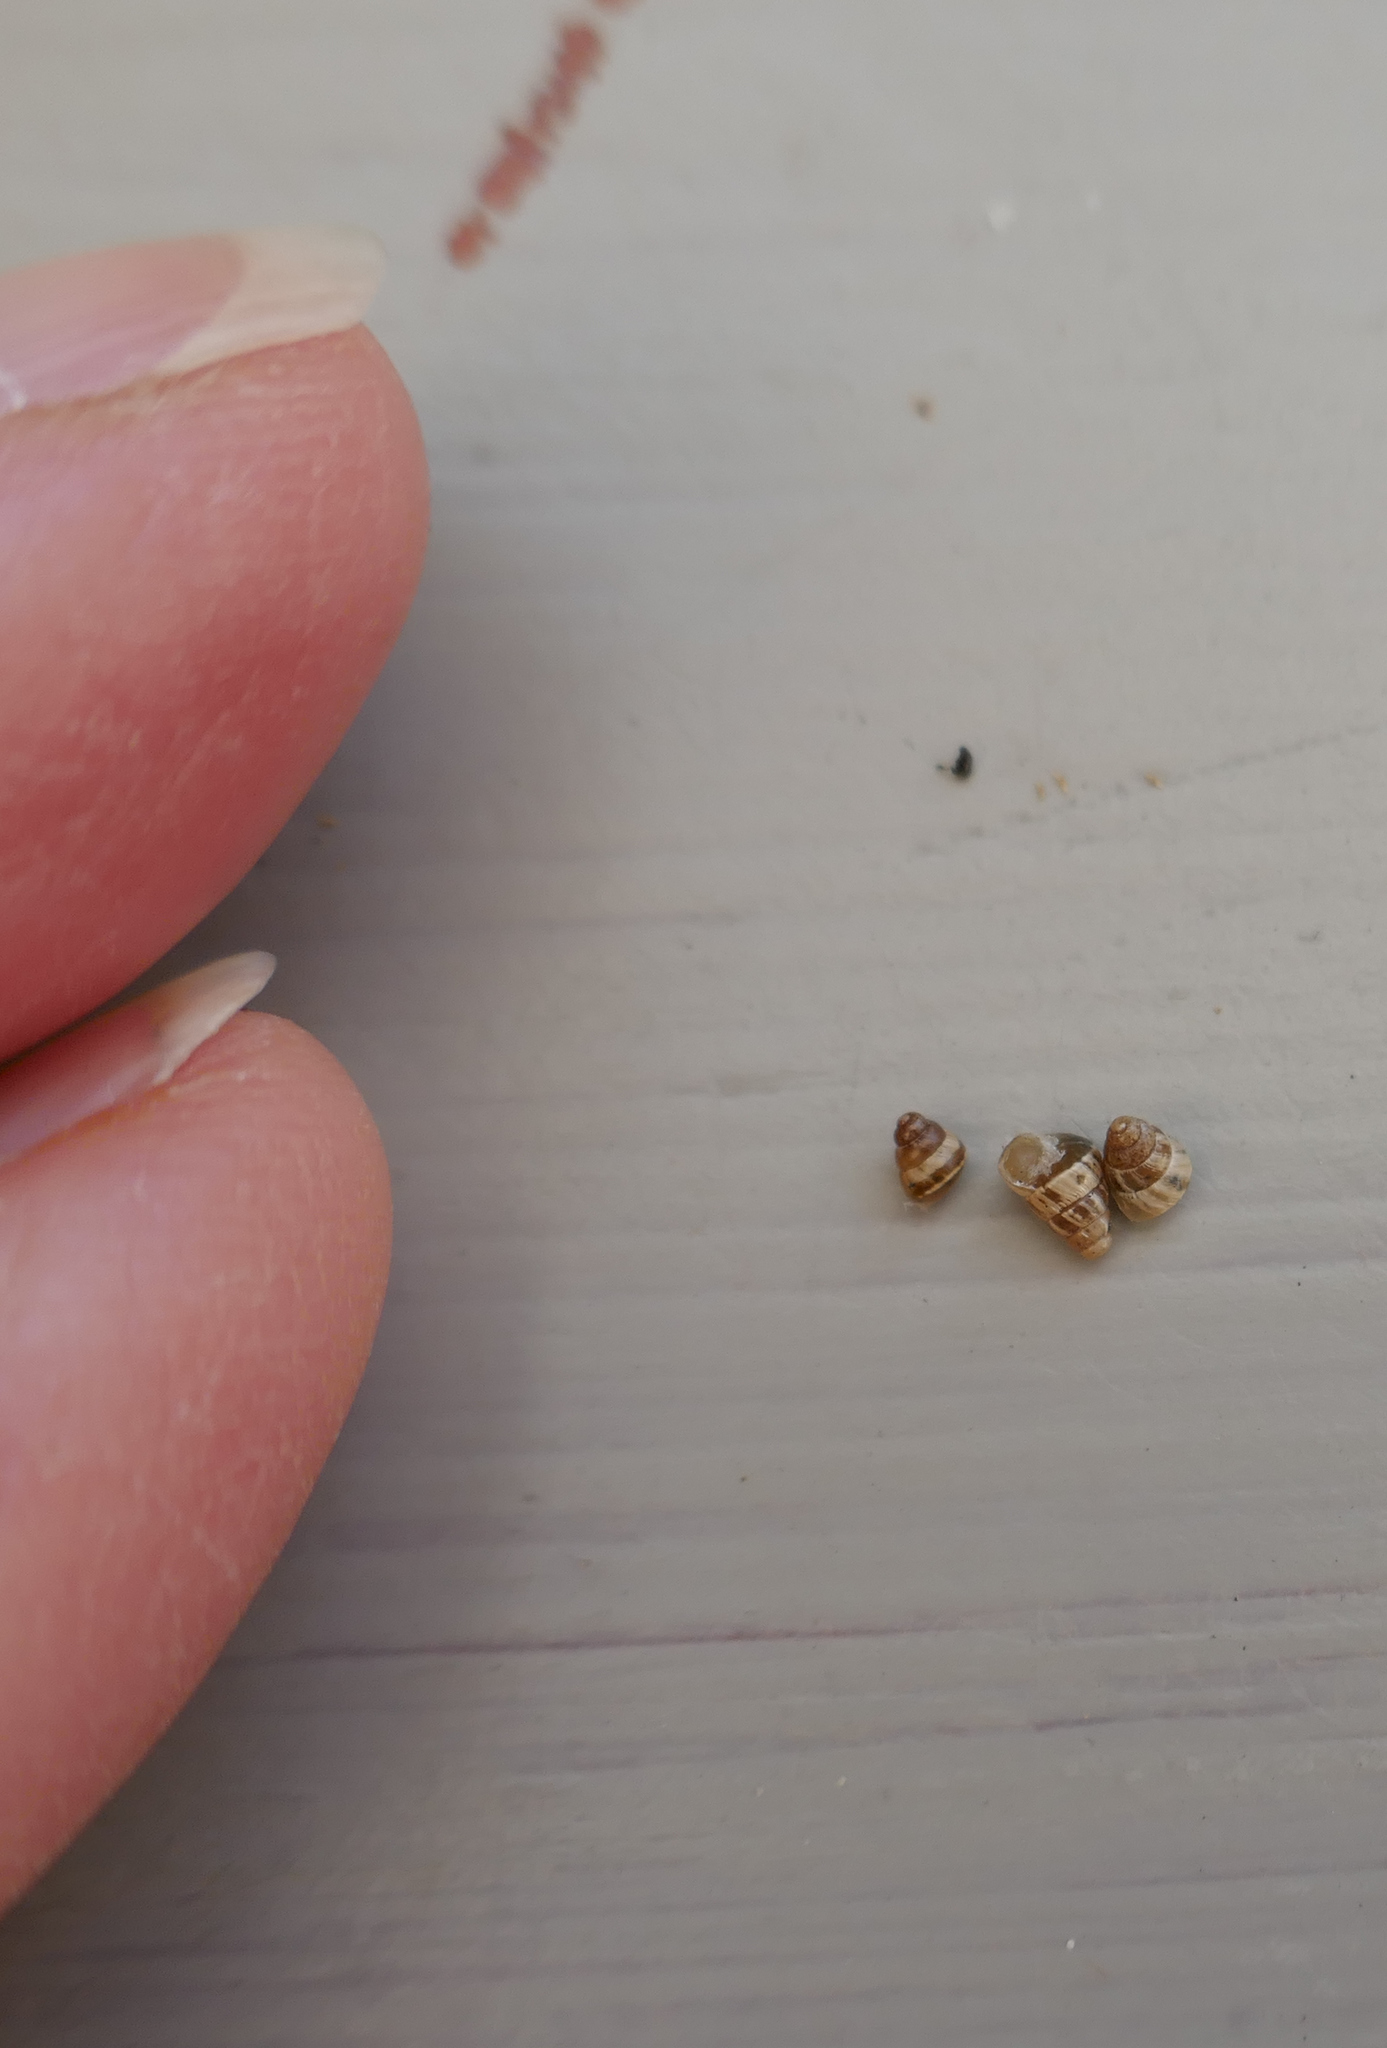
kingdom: Animalia
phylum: Mollusca
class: Gastropoda
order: Stylommatophora
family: Geomitridae
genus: Cochlicella
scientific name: Cochlicella barbara
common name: Potbellied helicellid
